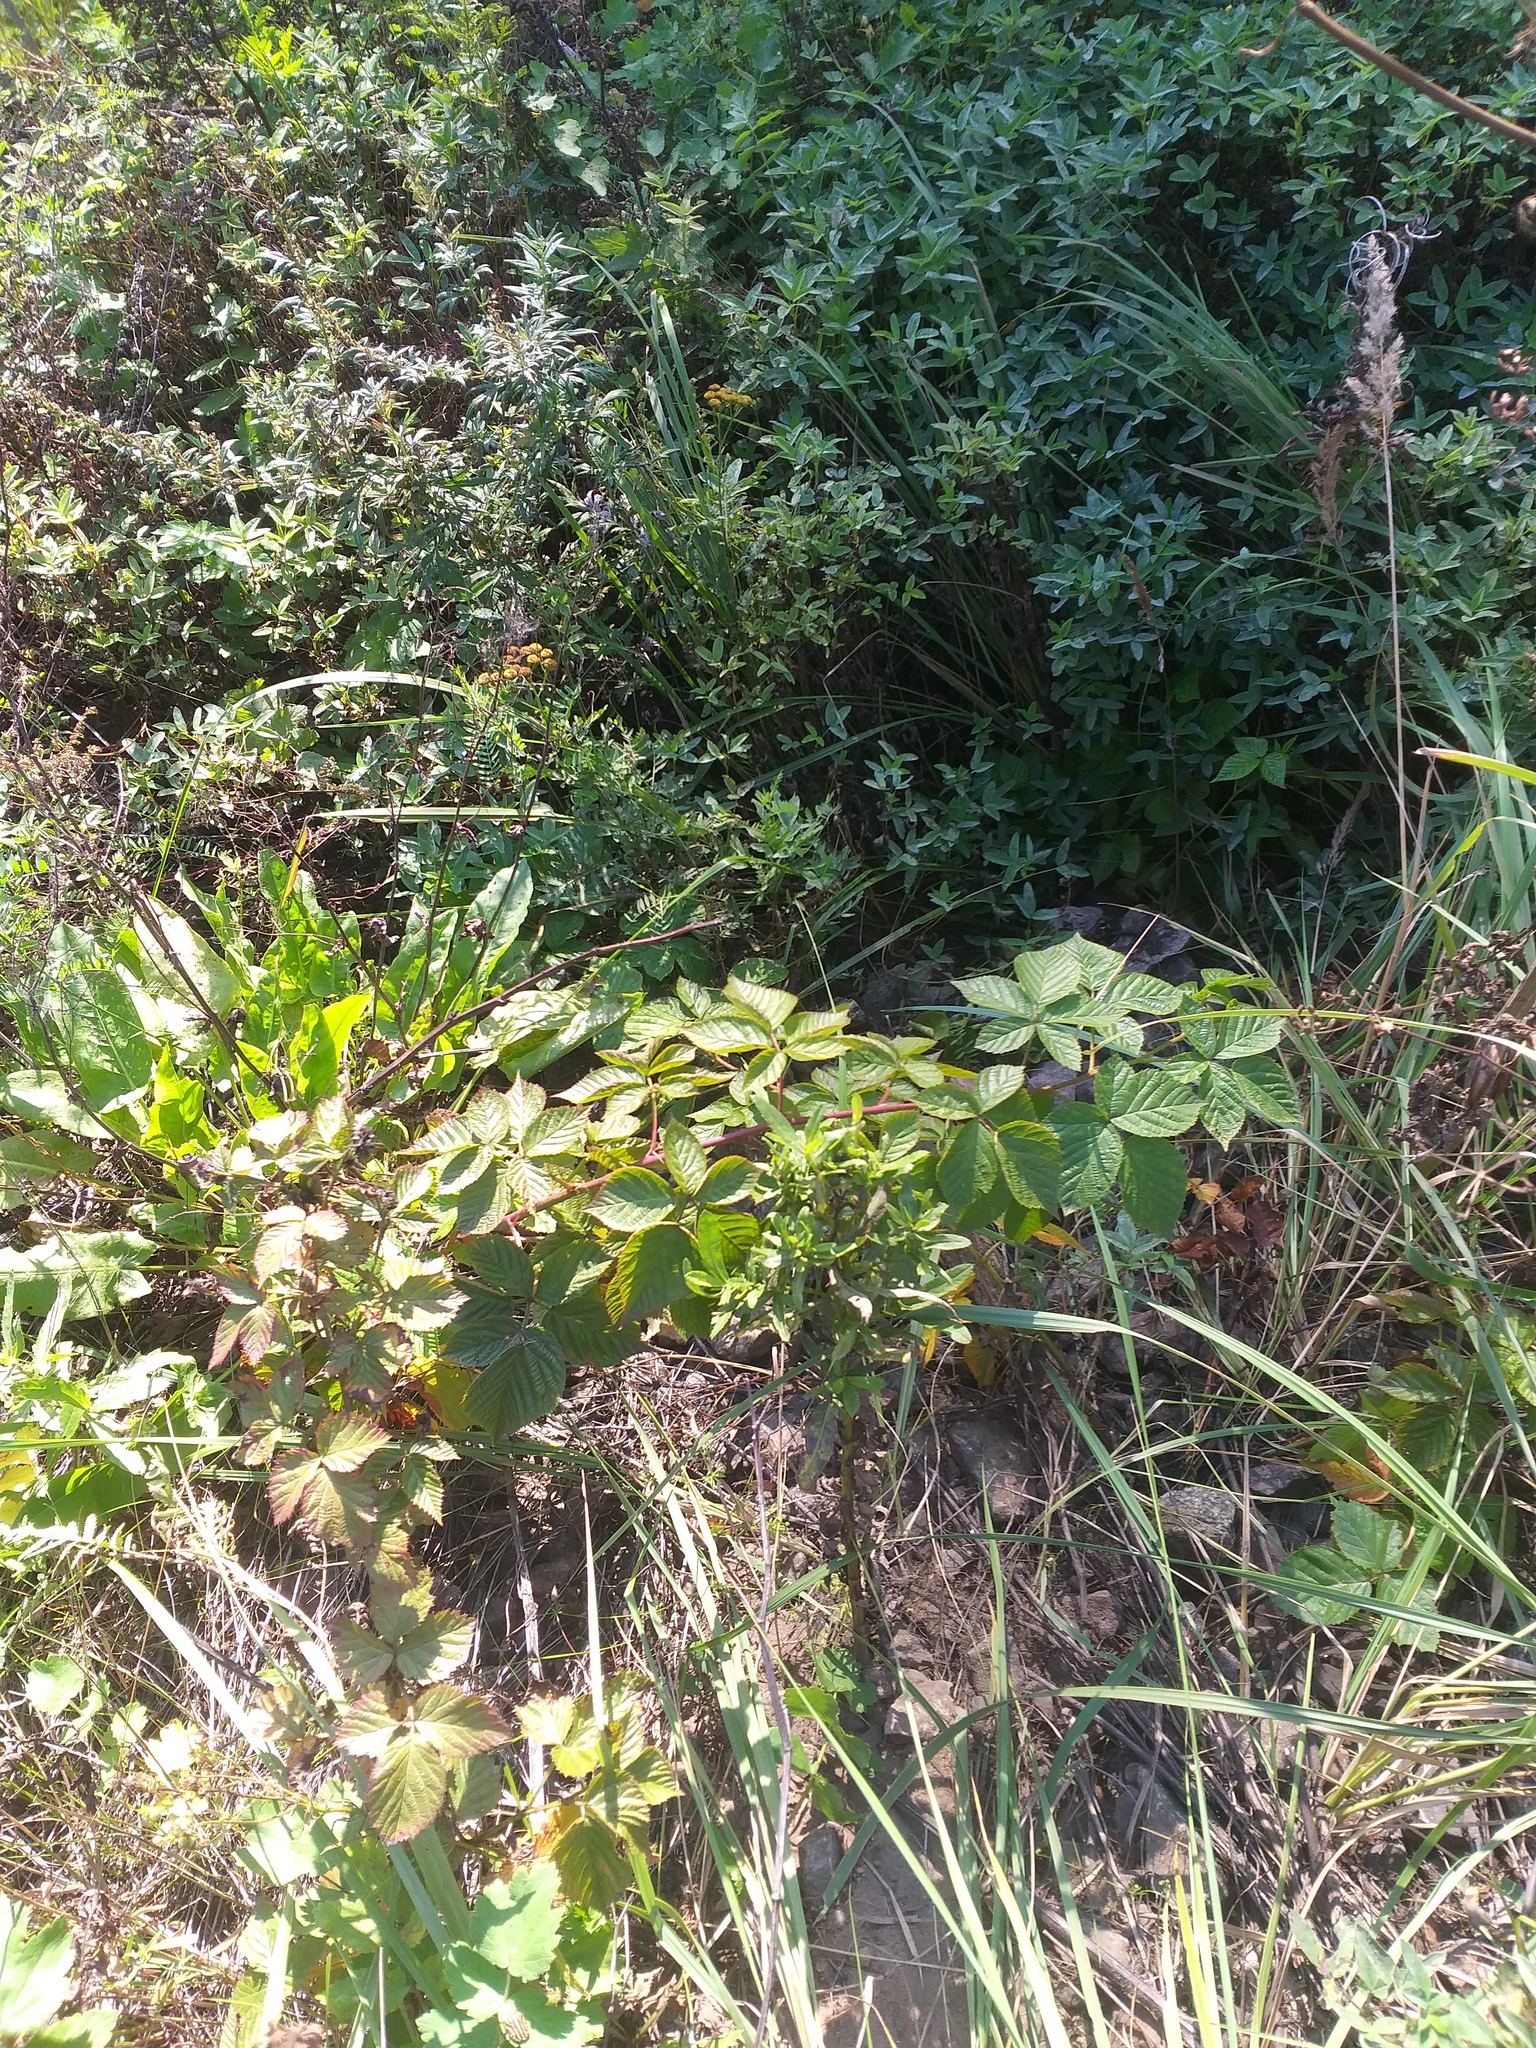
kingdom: Plantae
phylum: Tracheophyta
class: Magnoliopsida
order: Rosales
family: Rosaceae
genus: Rubus
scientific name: Rubus polonicus
